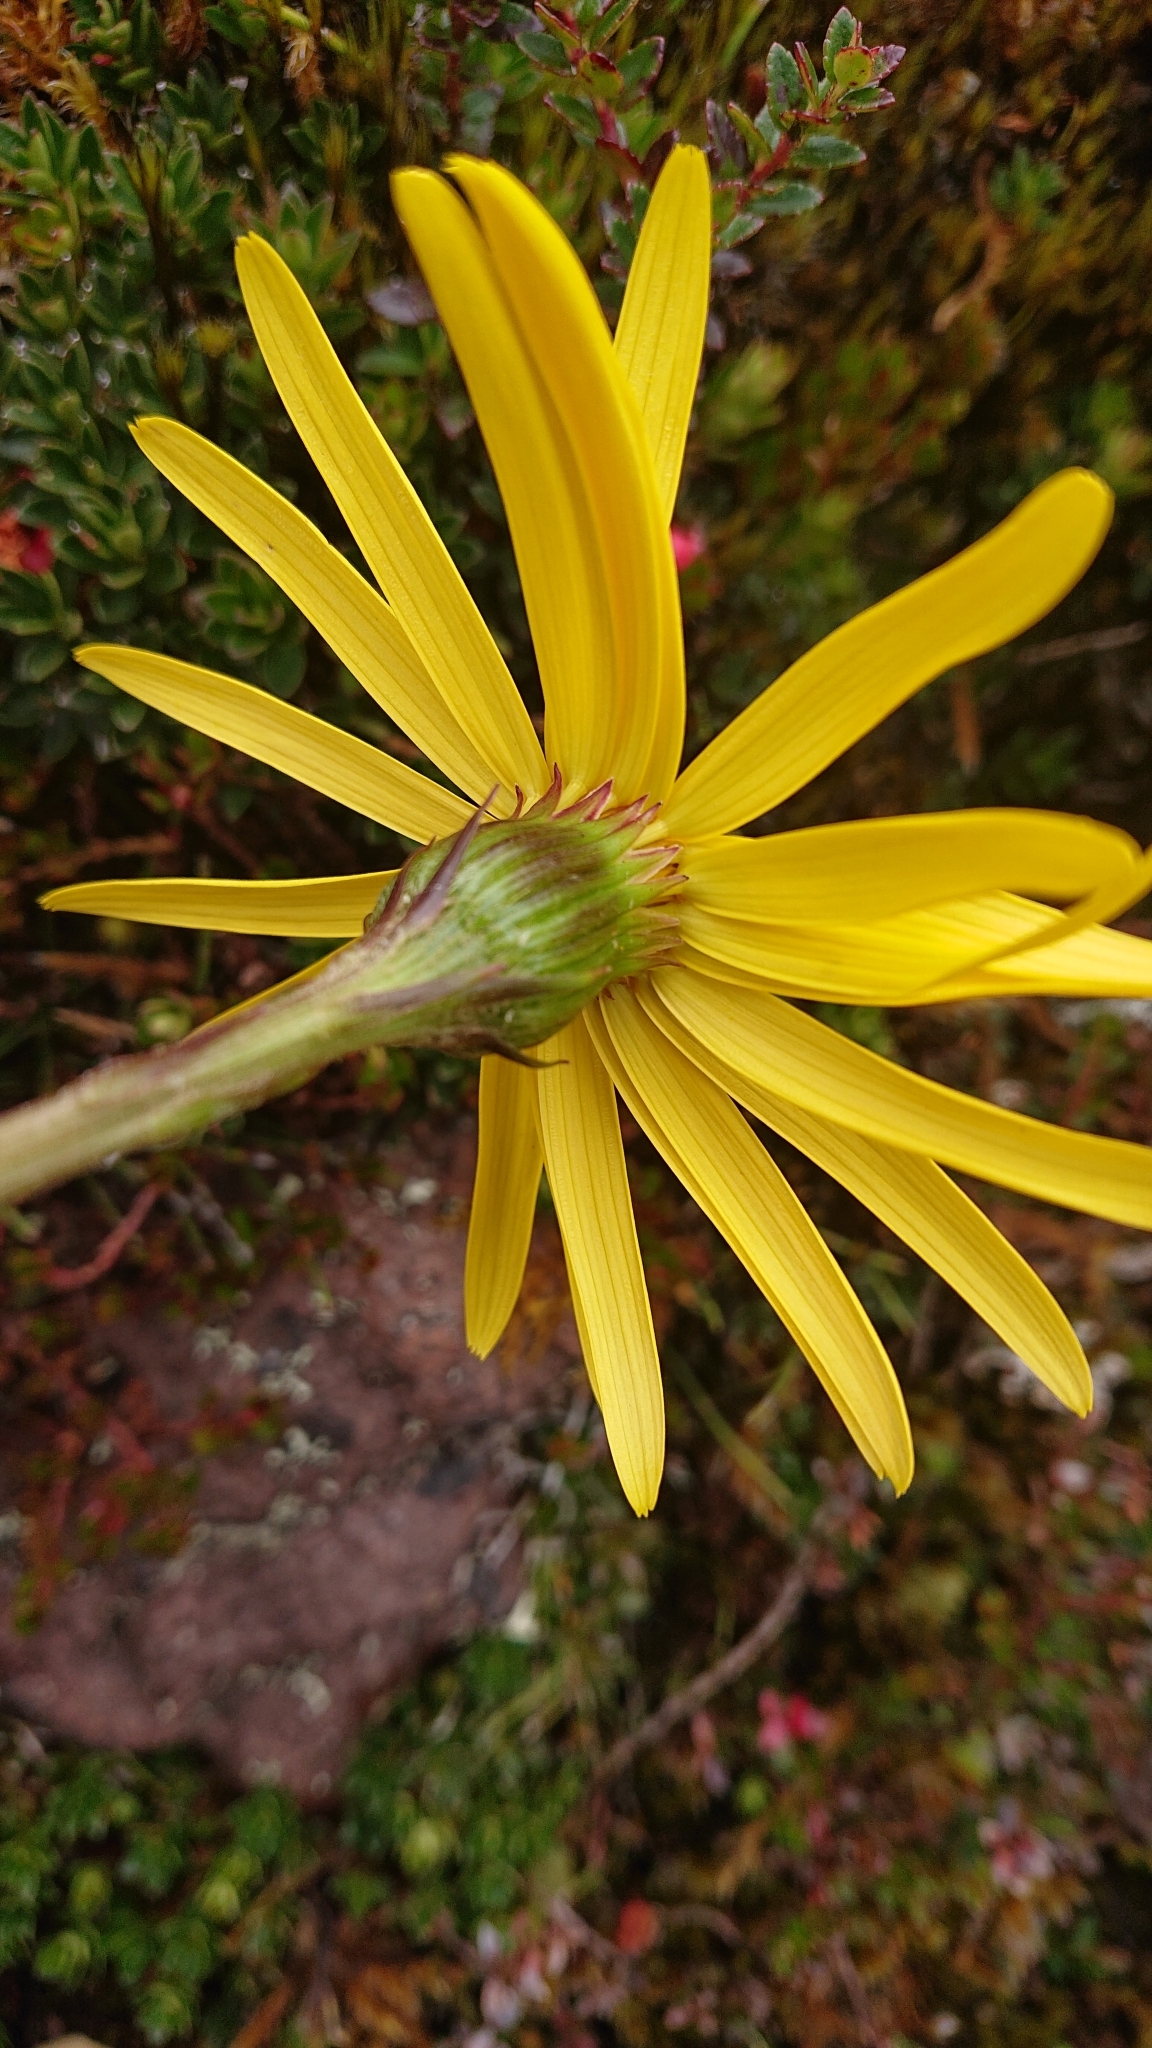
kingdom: Plantae
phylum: Tracheophyta
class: Magnoliopsida
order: Asterales
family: Asteraceae
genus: Dorobaea
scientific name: Dorobaea pimpinellifolia
